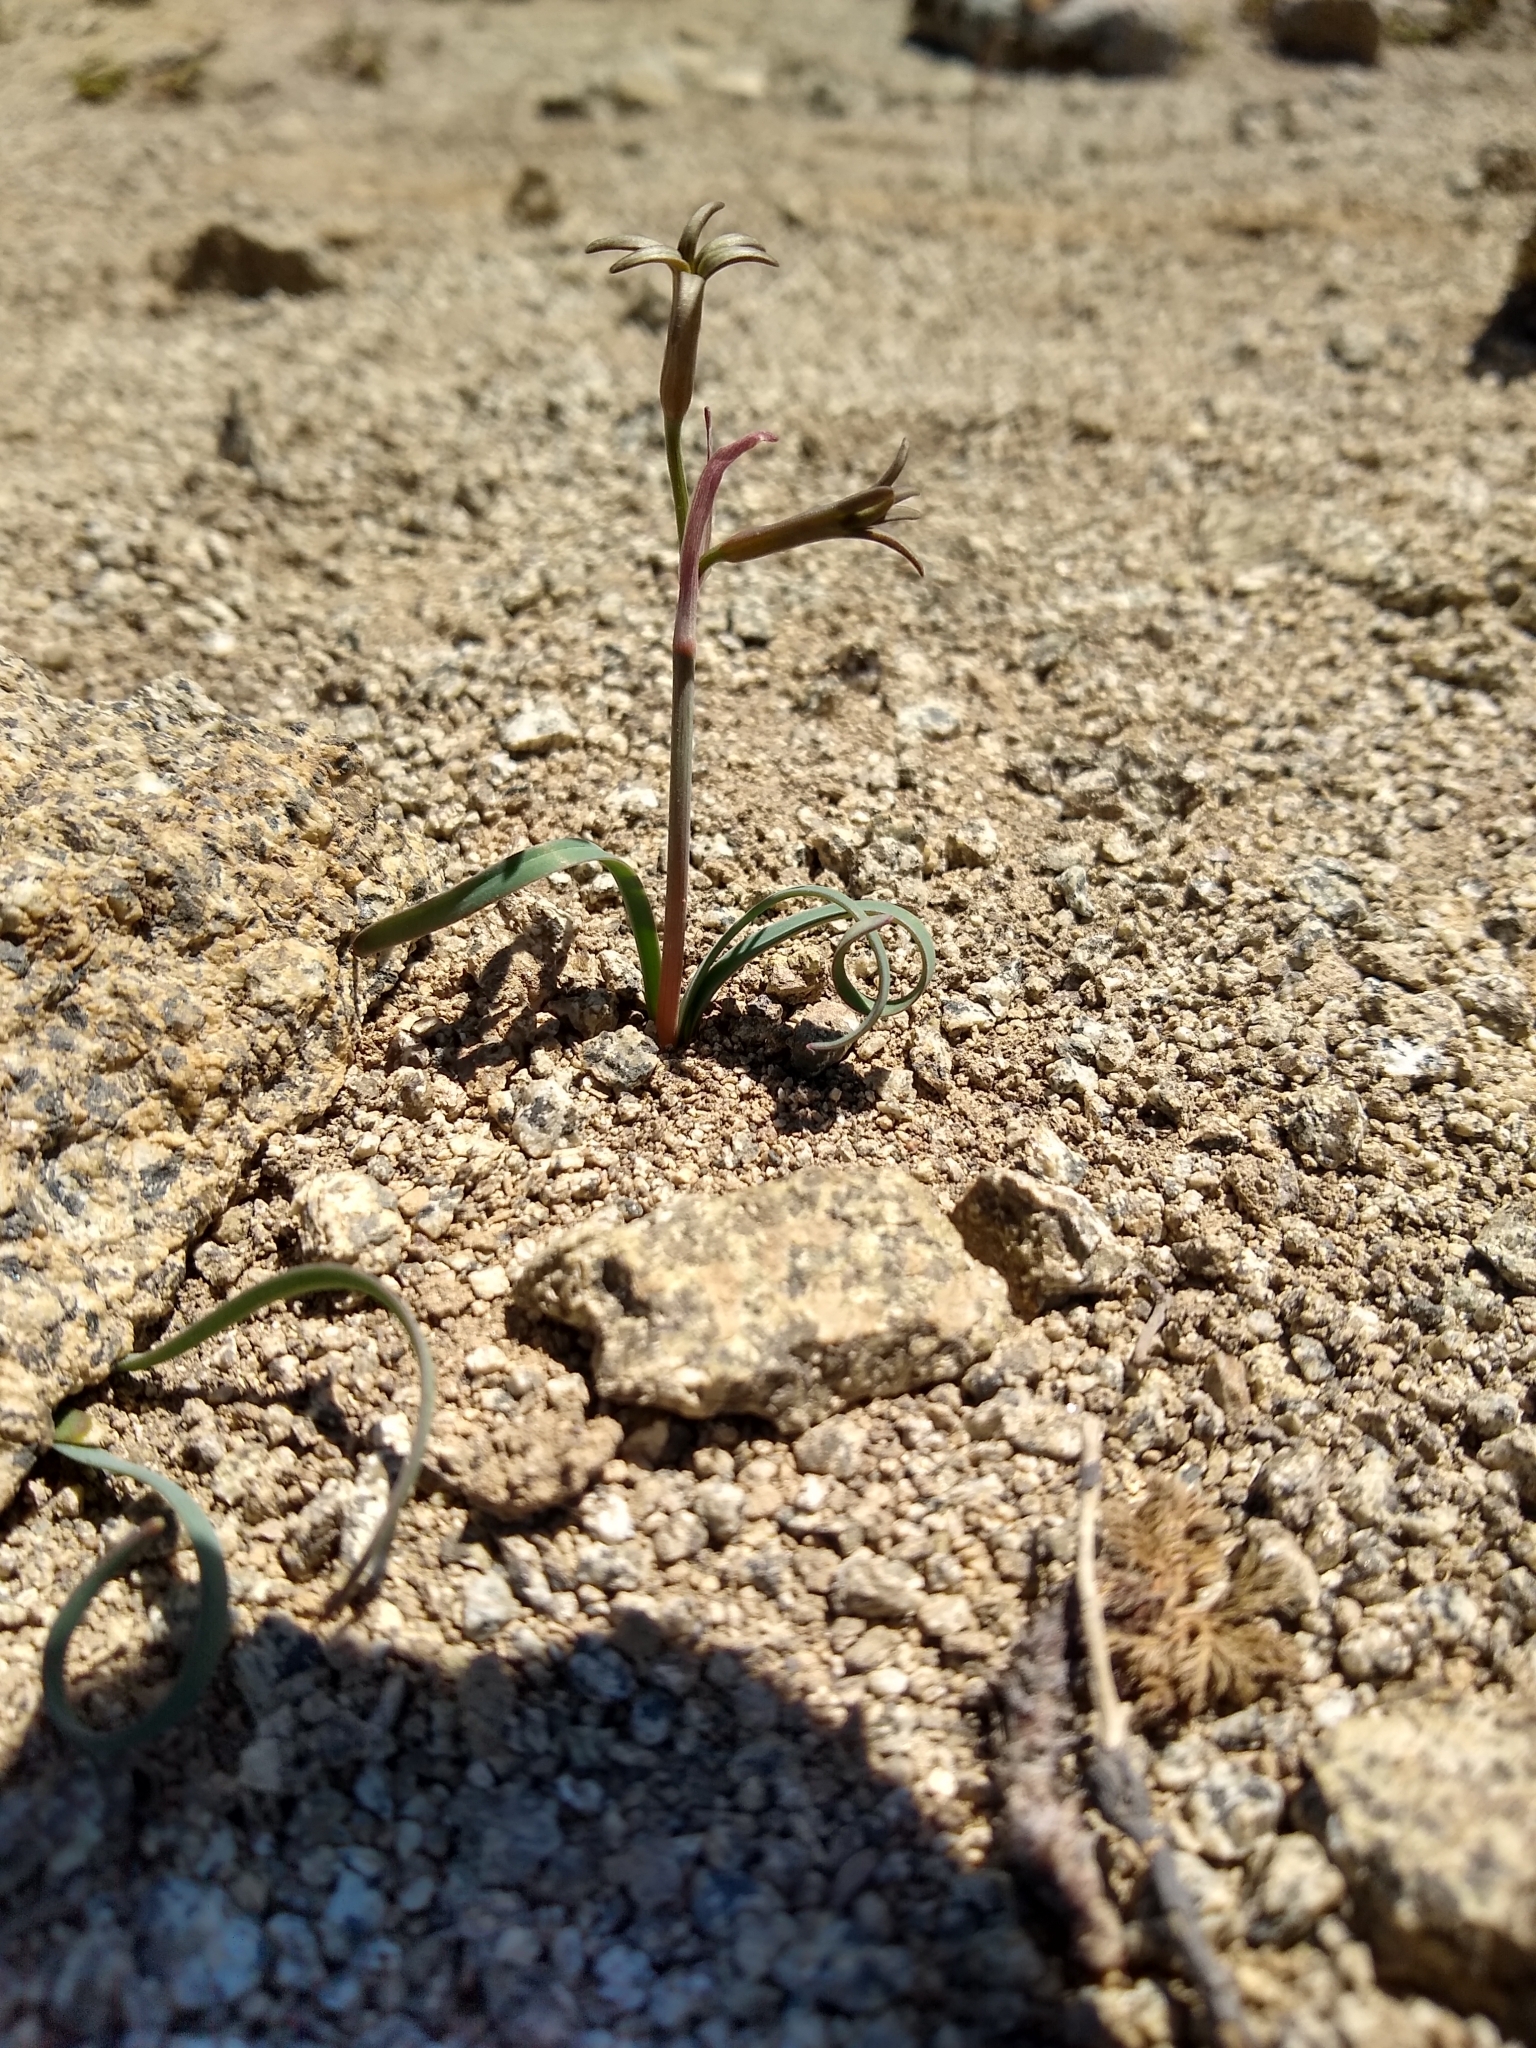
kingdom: Plantae
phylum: Tracheophyta
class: Liliopsida
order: Asparagales
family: Amaryllidaceae
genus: Tristagma
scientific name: Tristagma nivale
